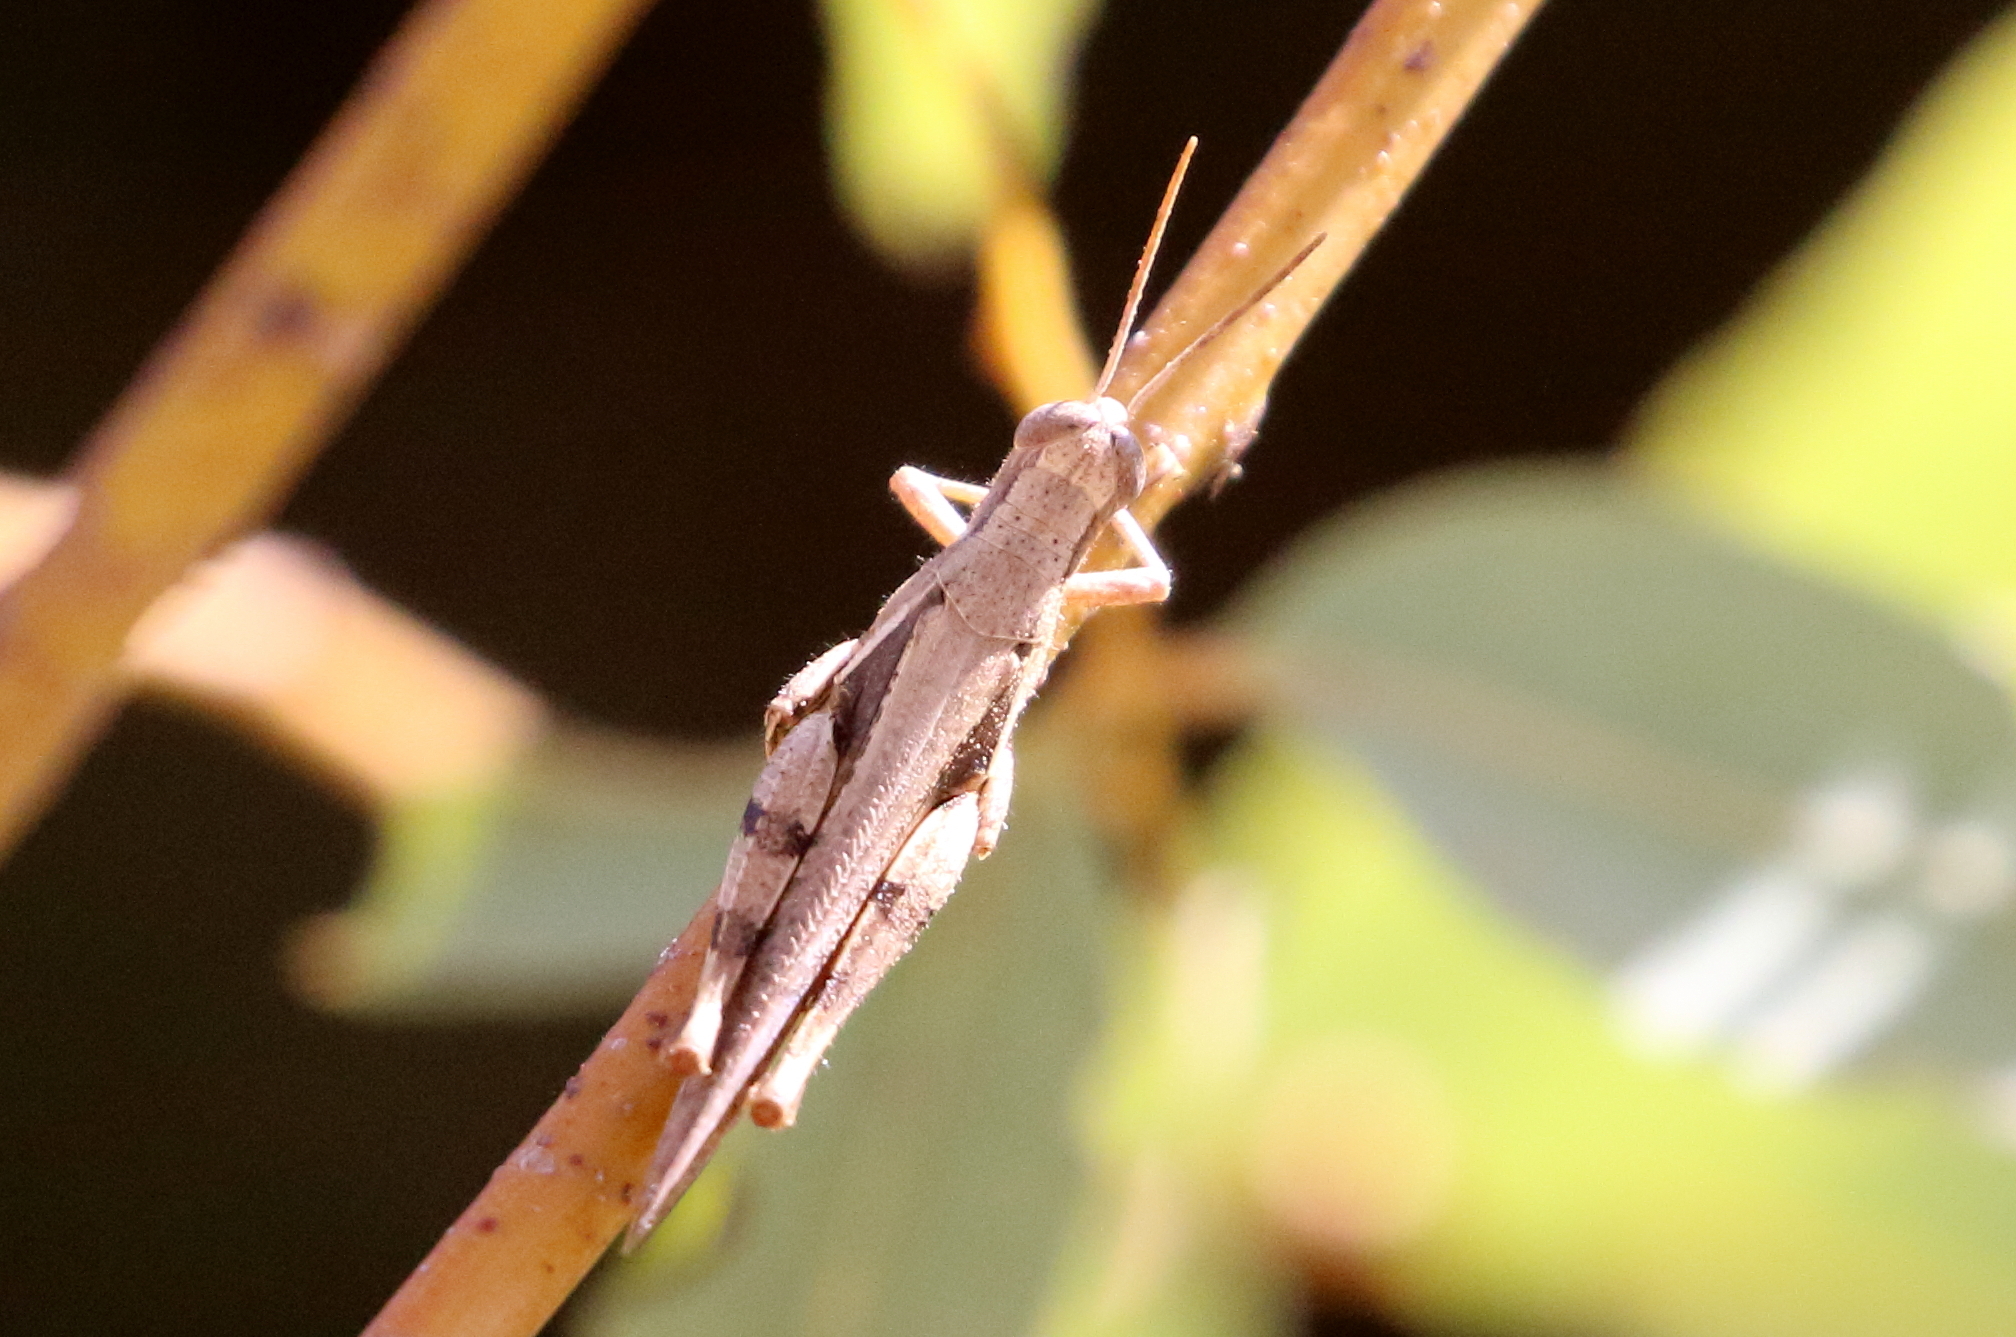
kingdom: Animalia
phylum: Arthropoda
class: Insecta
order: Orthoptera
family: Acrididae
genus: Stenocatantops
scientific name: Stenocatantops angustifrons
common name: Common tropical sharptail
